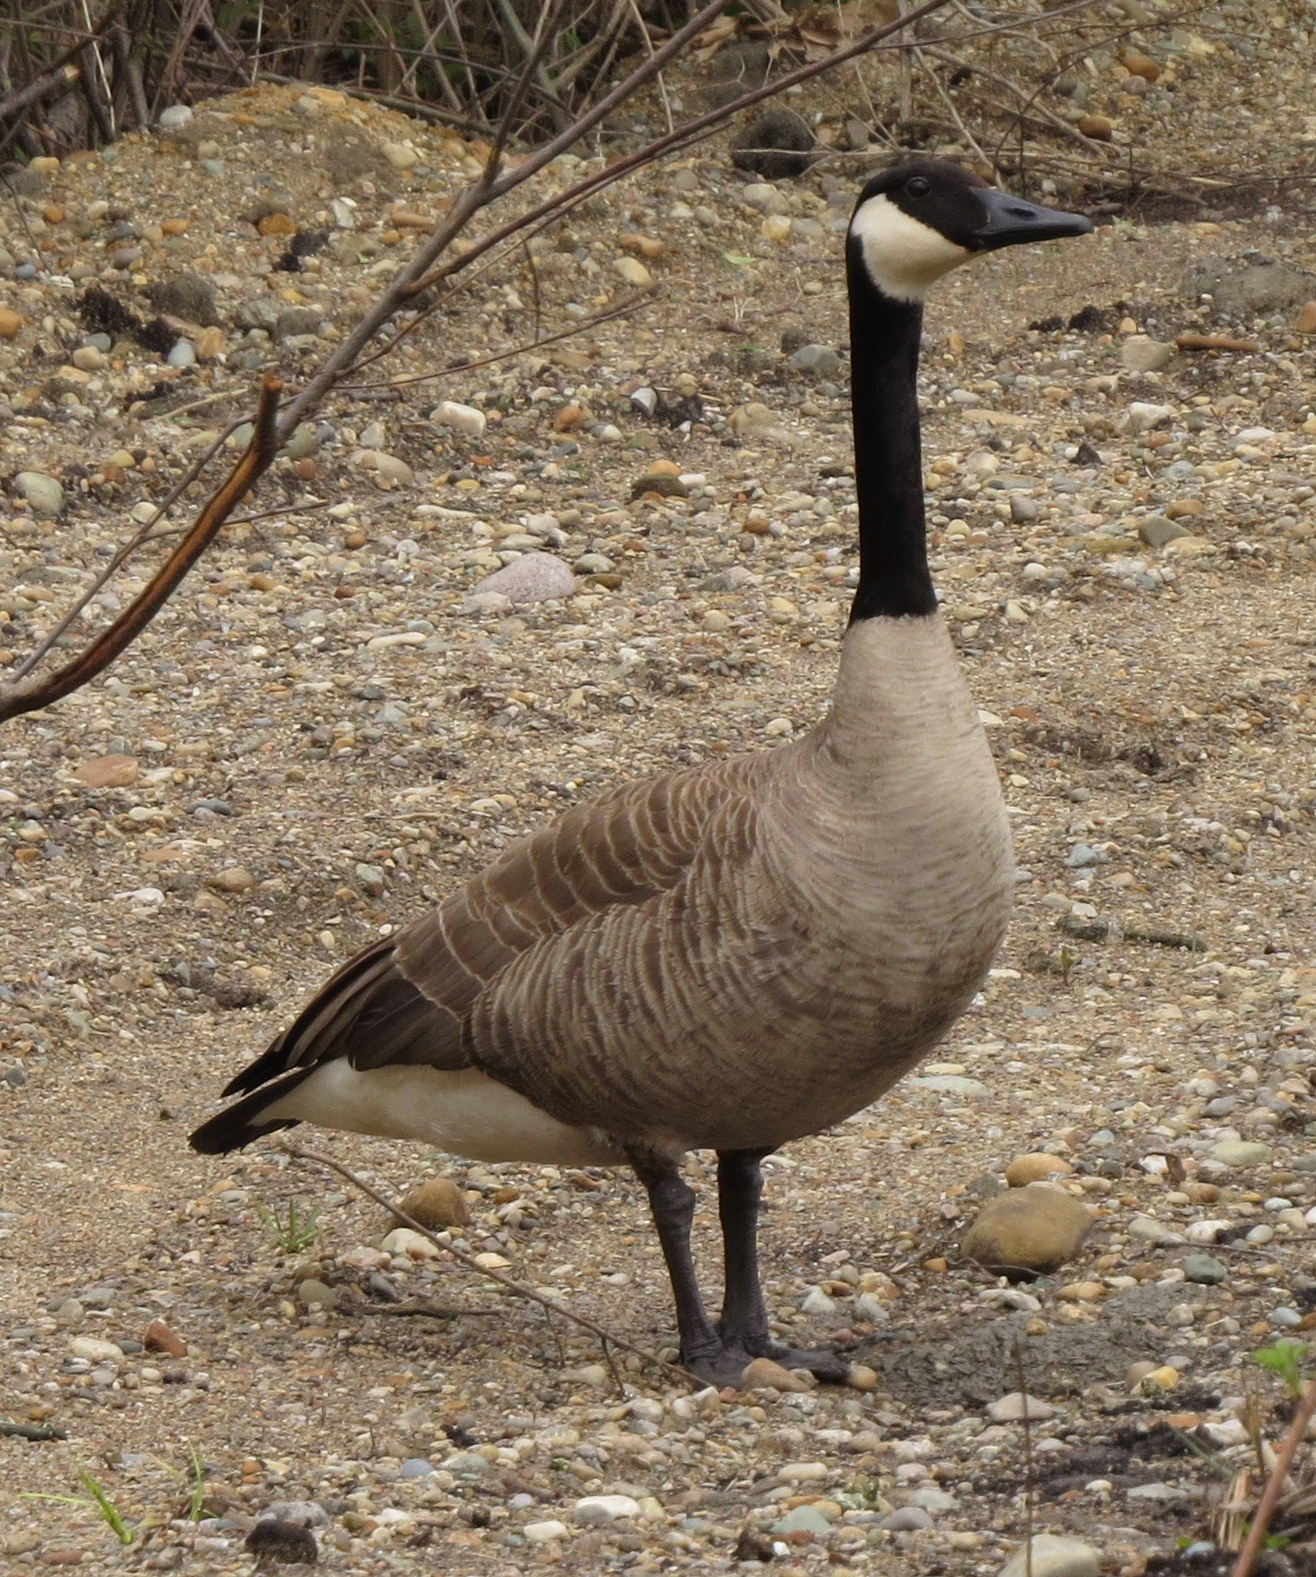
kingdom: Animalia
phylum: Chordata
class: Aves
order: Anseriformes
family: Anatidae
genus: Branta
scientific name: Branta canadensis
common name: Canada goose
